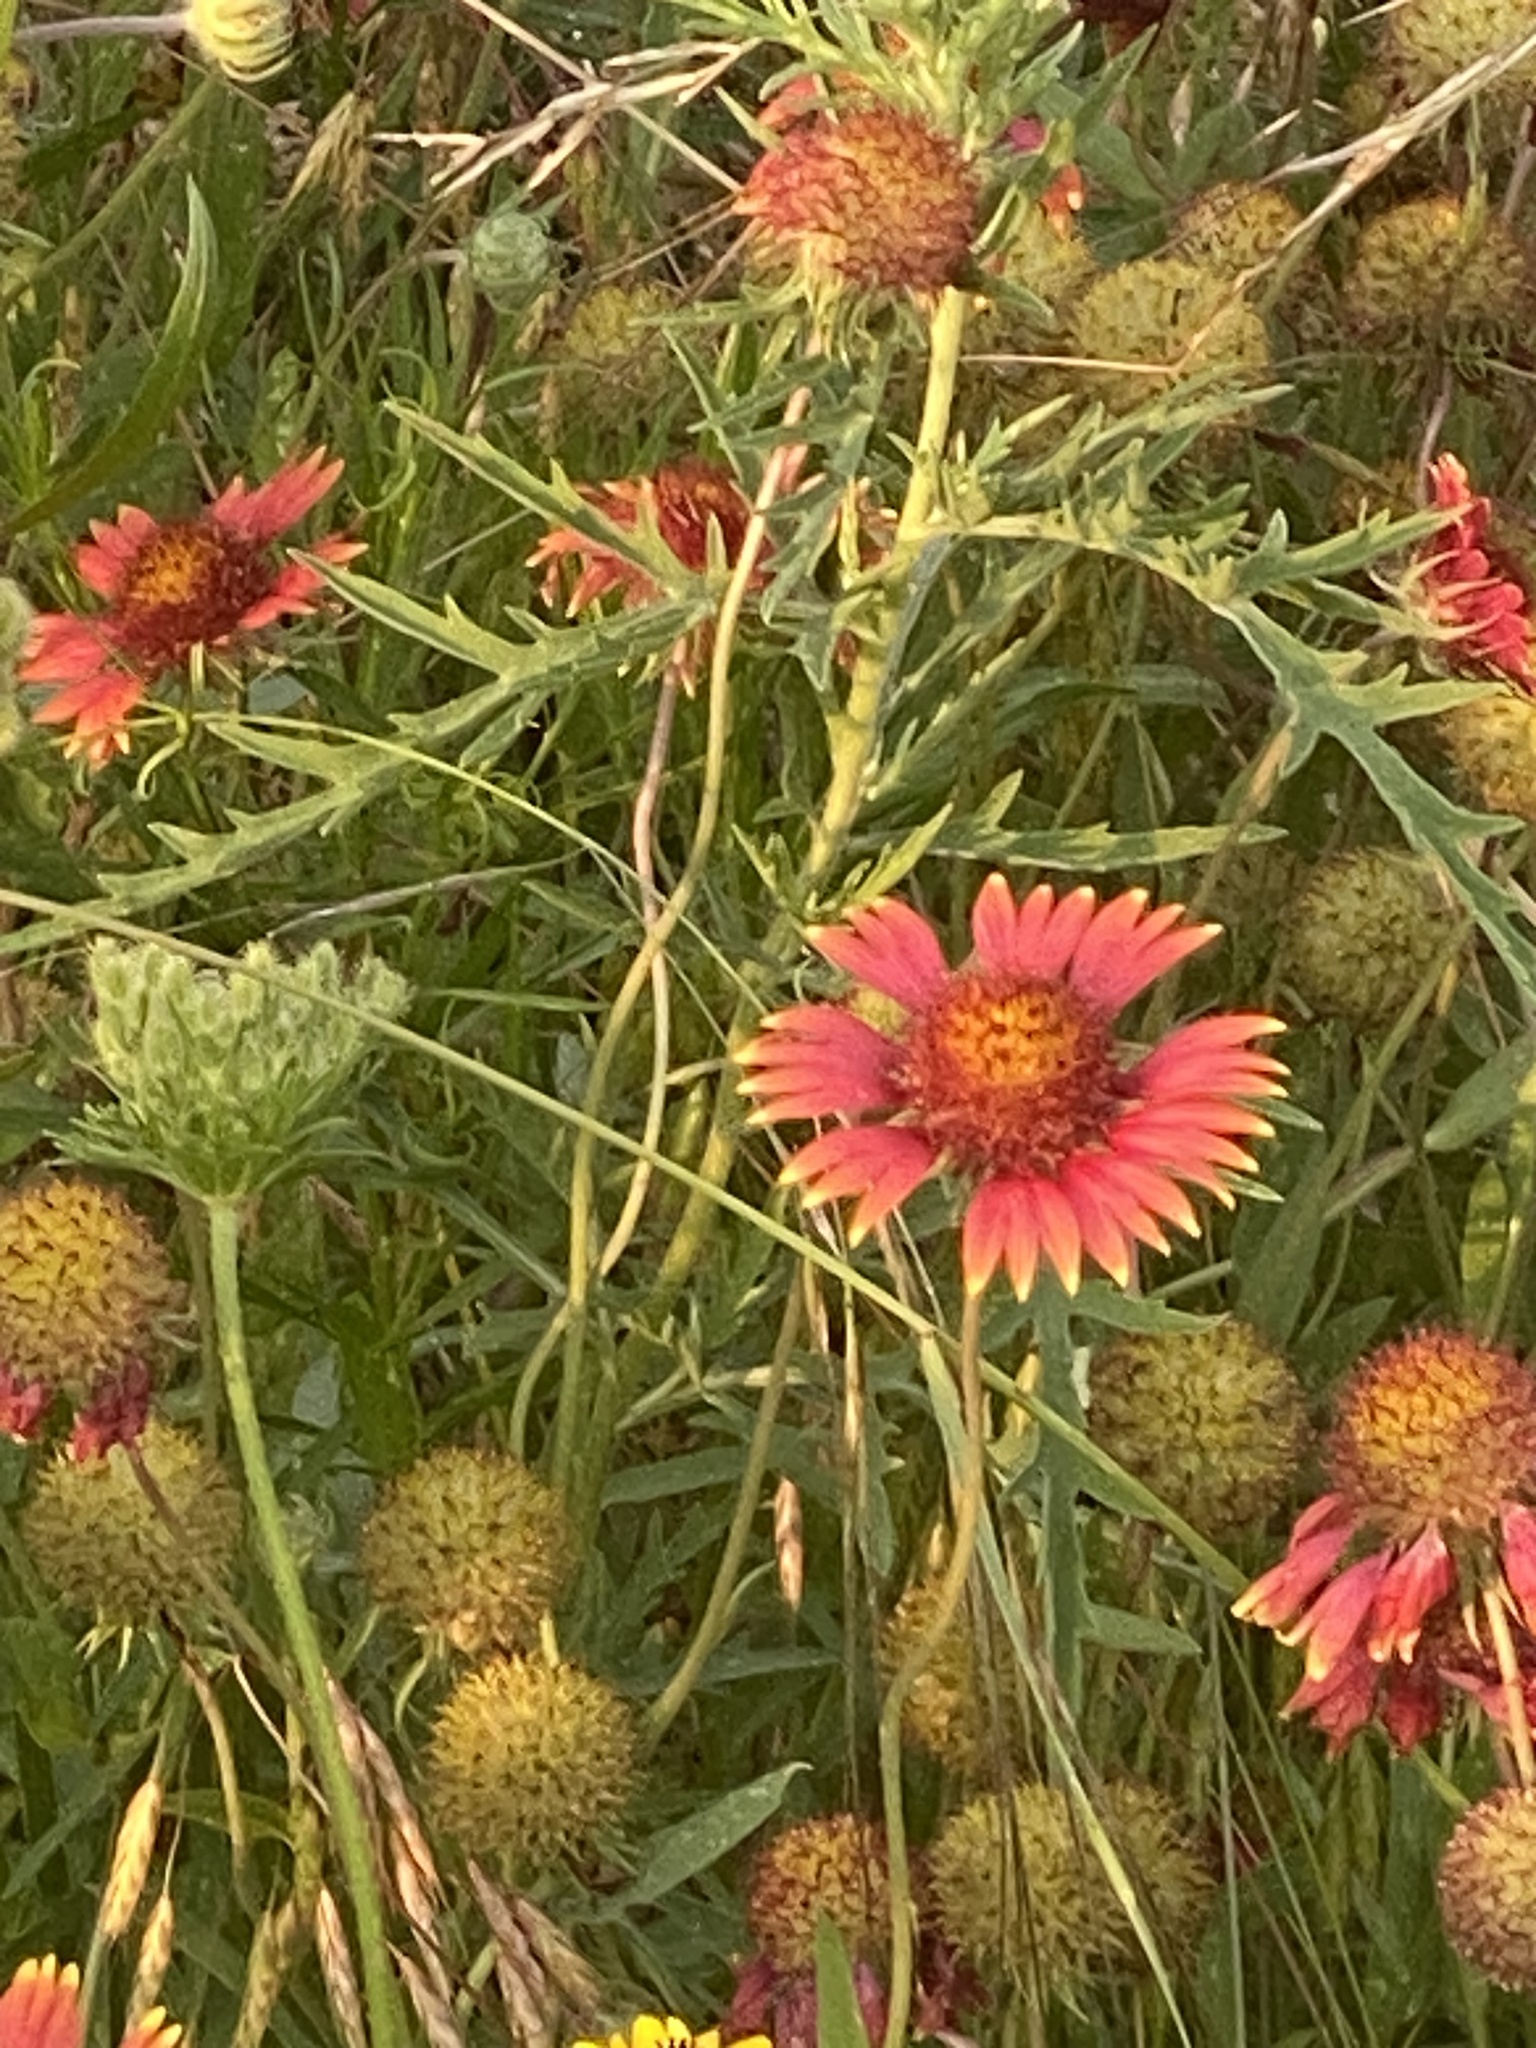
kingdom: Plantae
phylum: Tracheophyta
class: Magnoliopsida
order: Asterales
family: Asteraceae
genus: Gaillardia
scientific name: Gaillardia pulchella
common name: Firewheel
